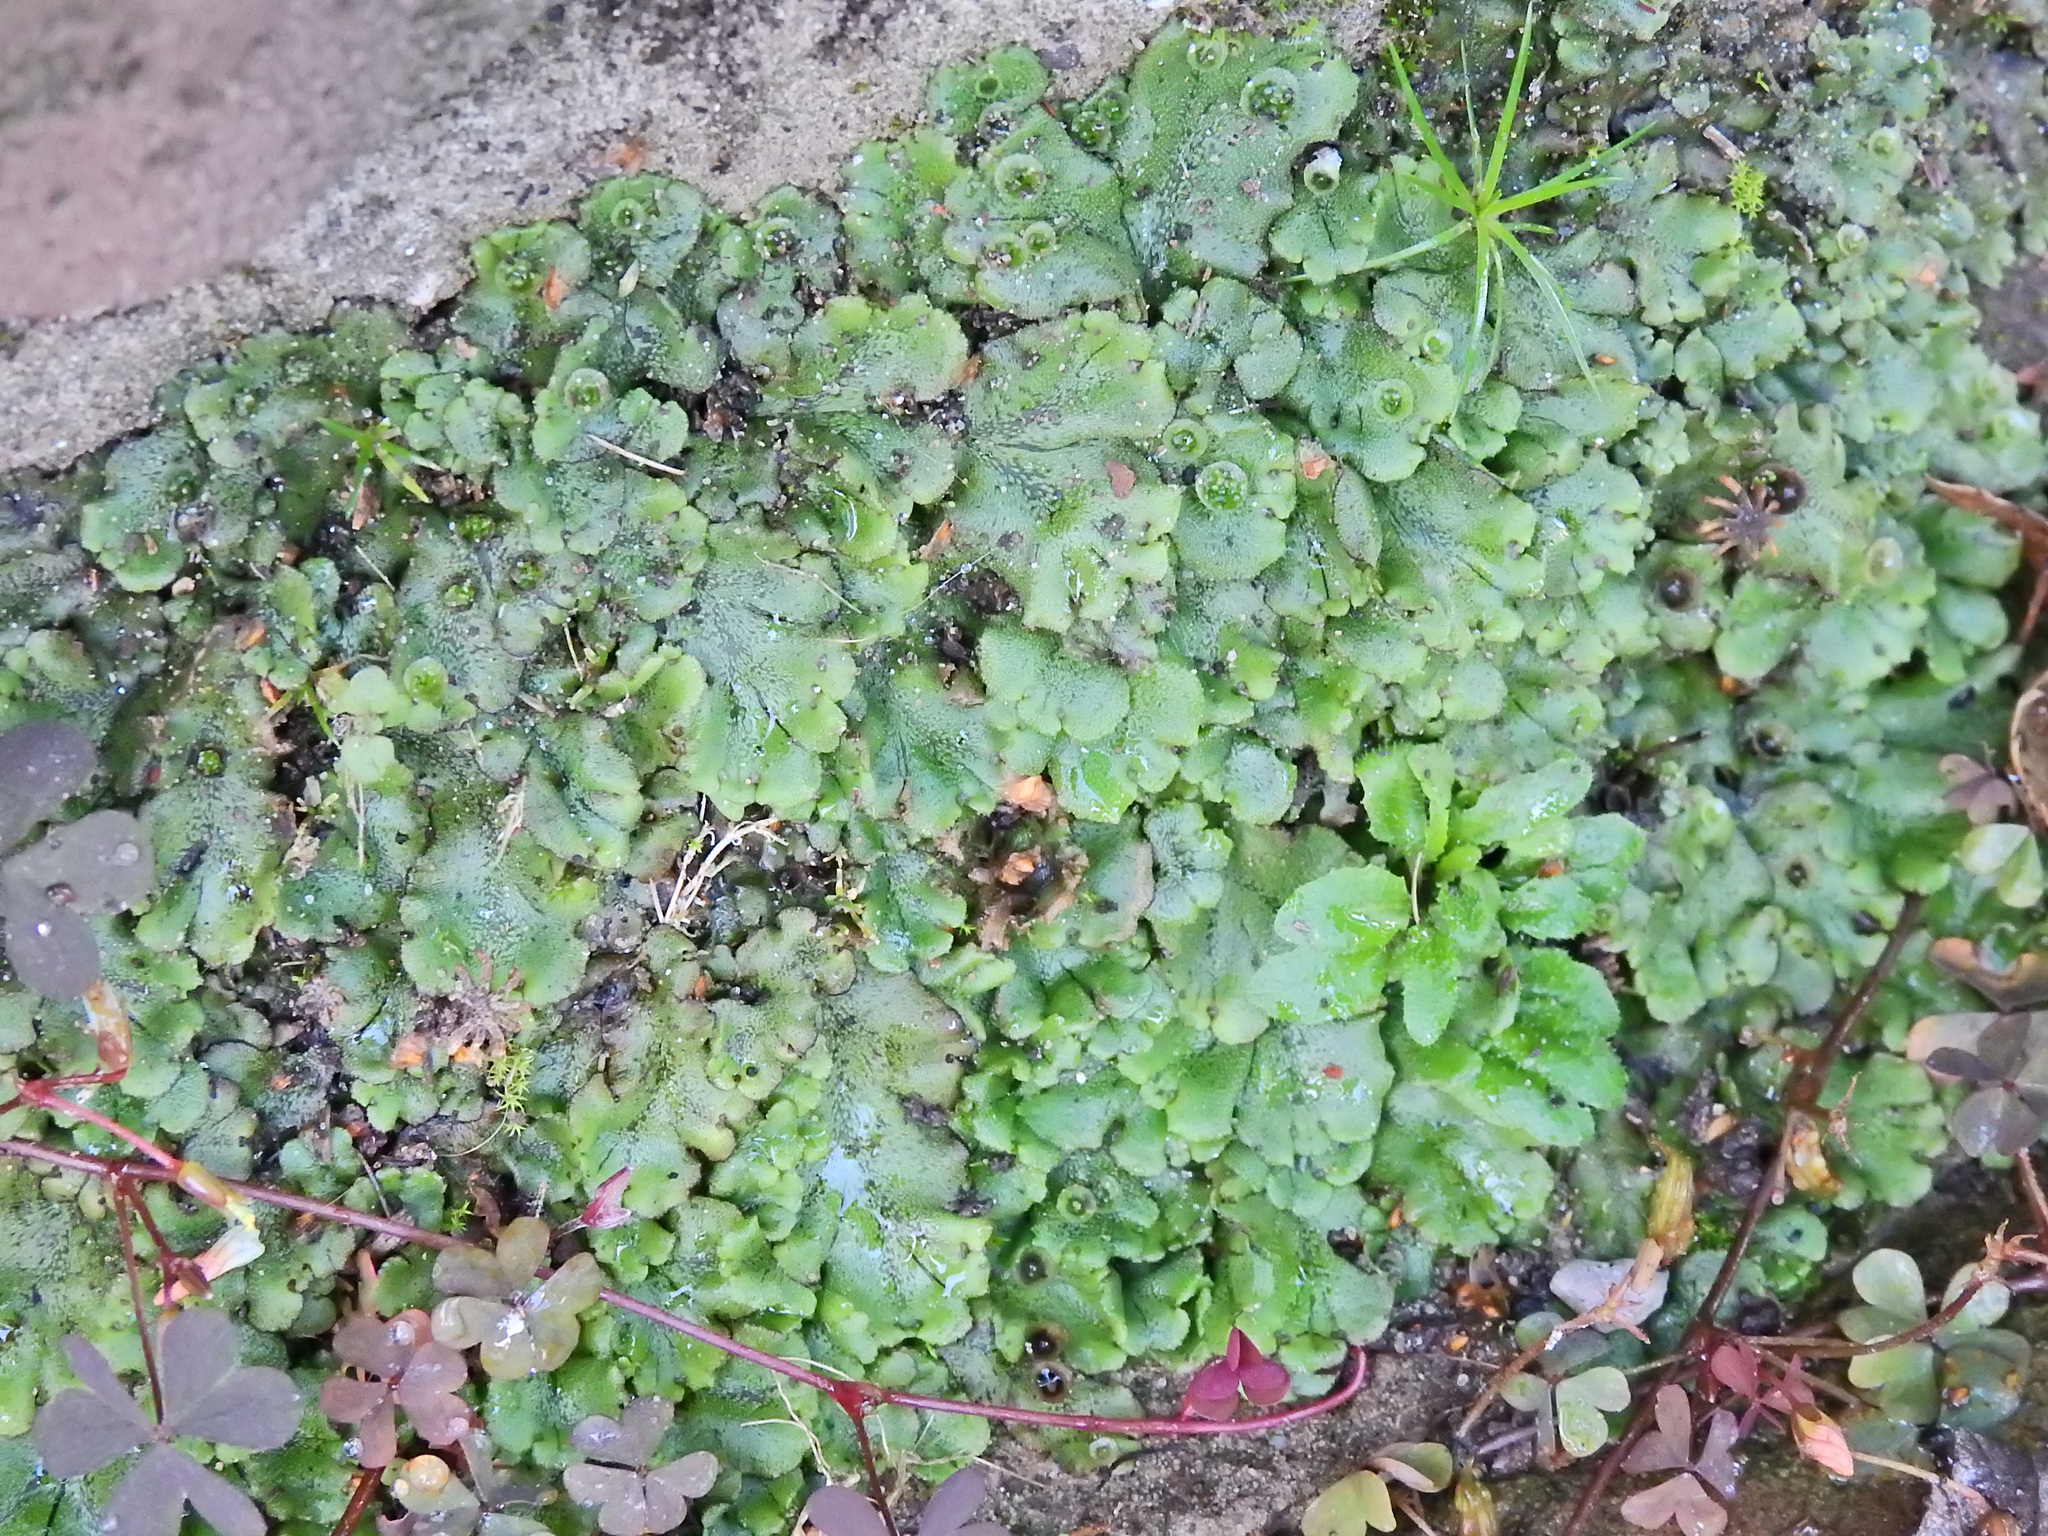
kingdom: Plantae
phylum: Marchantiophyta
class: Marchantiopsida
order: Marchantiales
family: Marchantiaceae
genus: Marchantia
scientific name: Marchantia polymorpha
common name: Common liverwort
